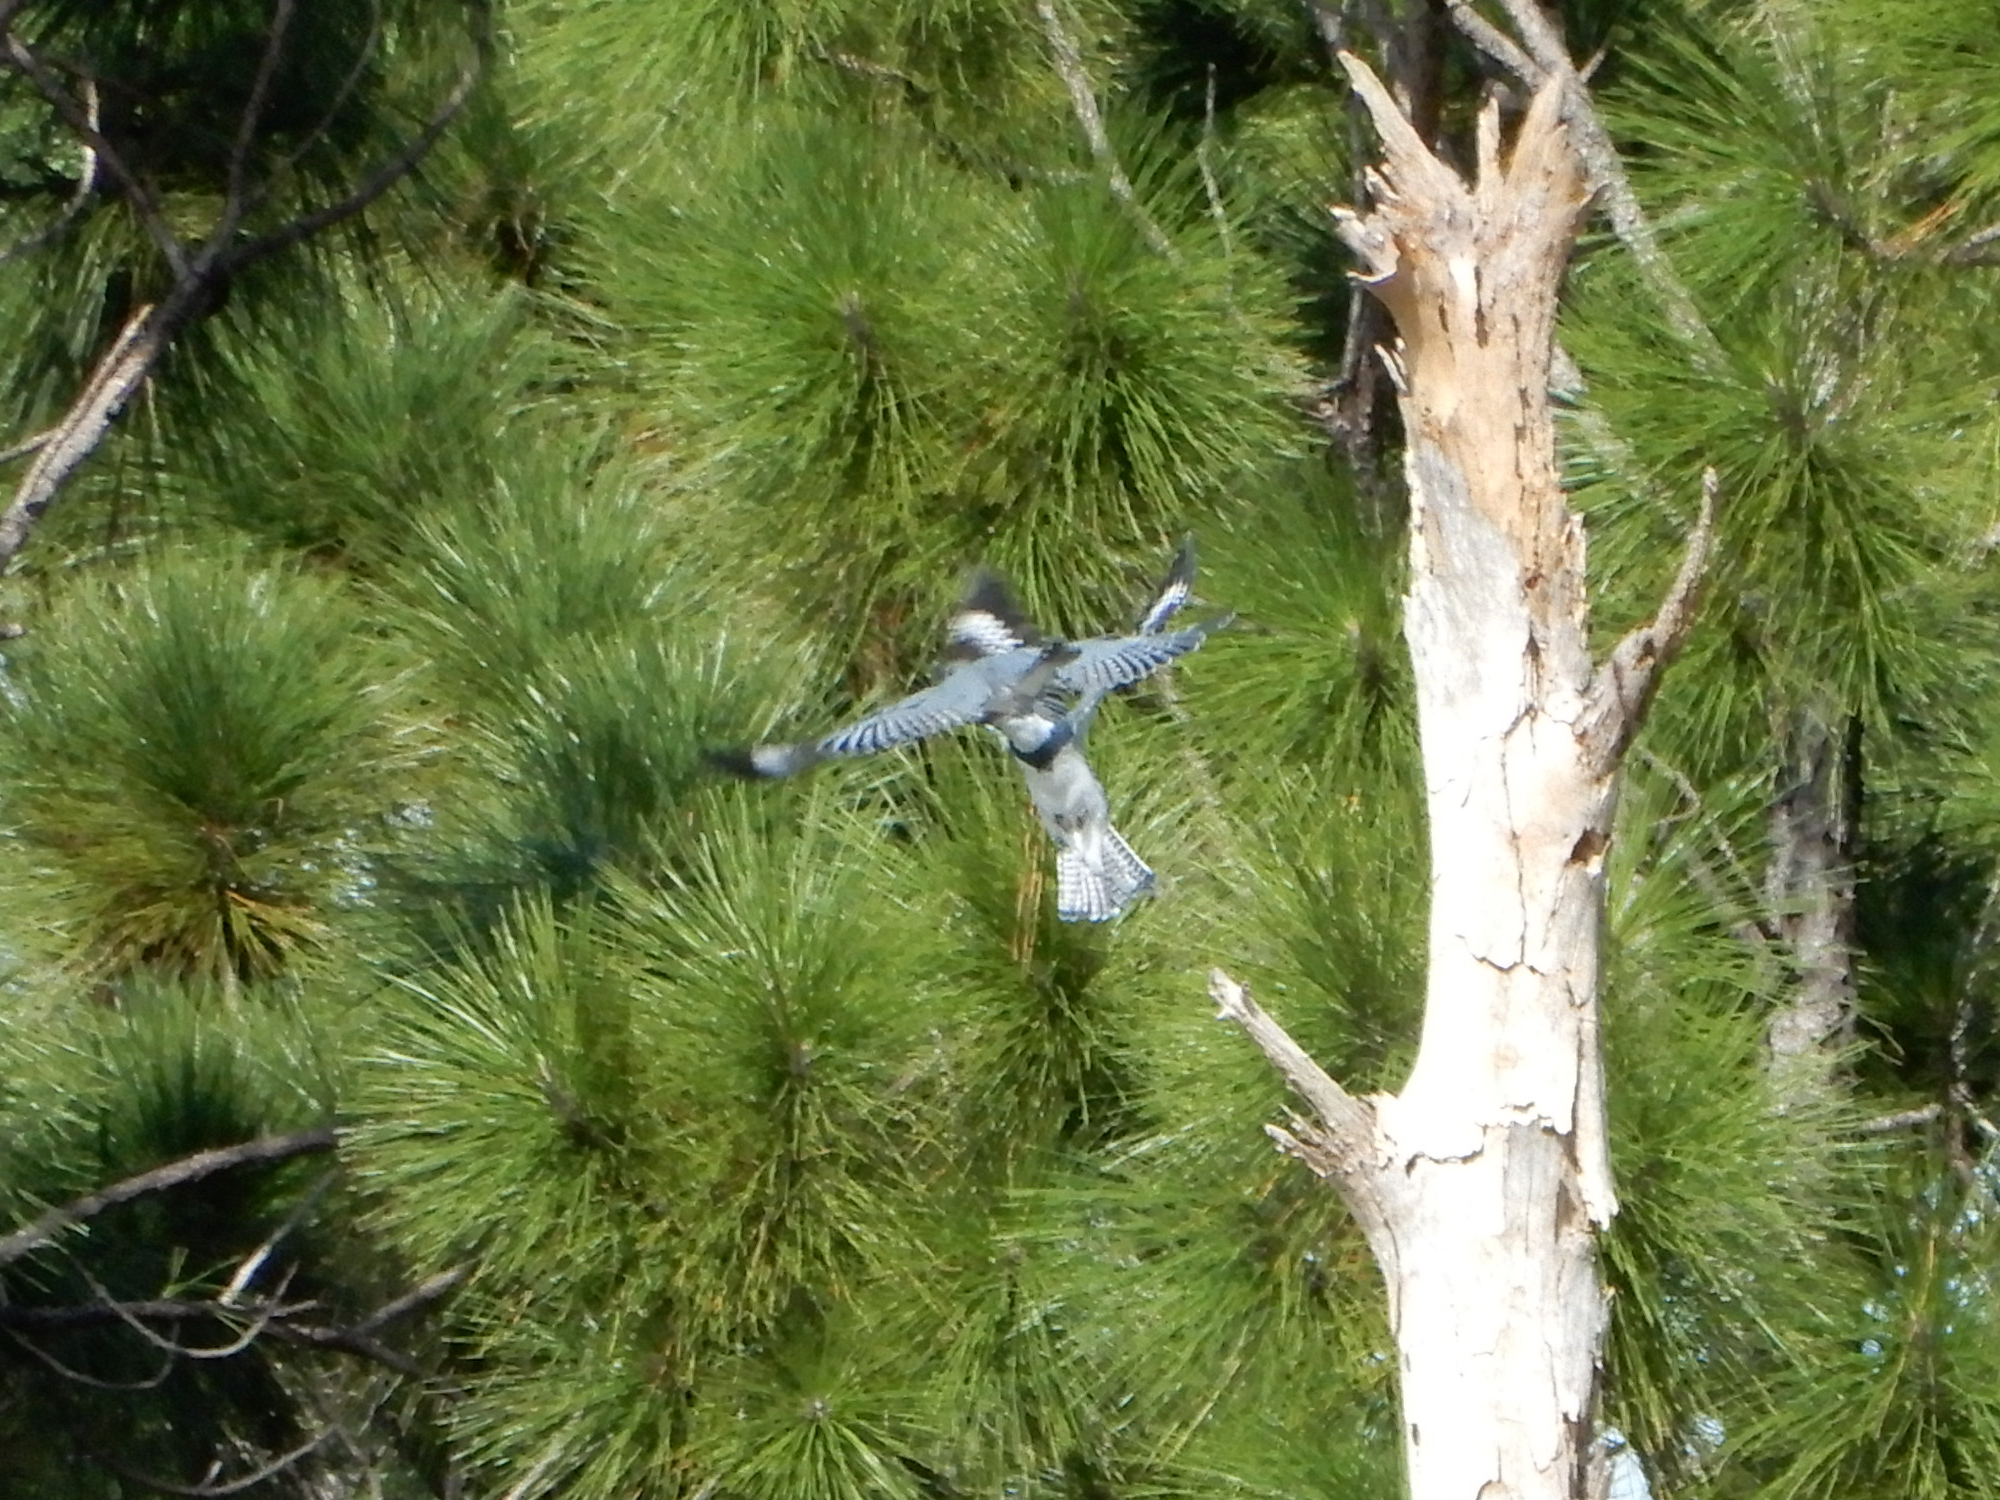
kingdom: Animalia
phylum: Chordata
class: Aves
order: Coraciiformes
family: Alcedinidae
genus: Megaceryle
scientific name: Megaceryle alcyon
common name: Belted kingfisher
